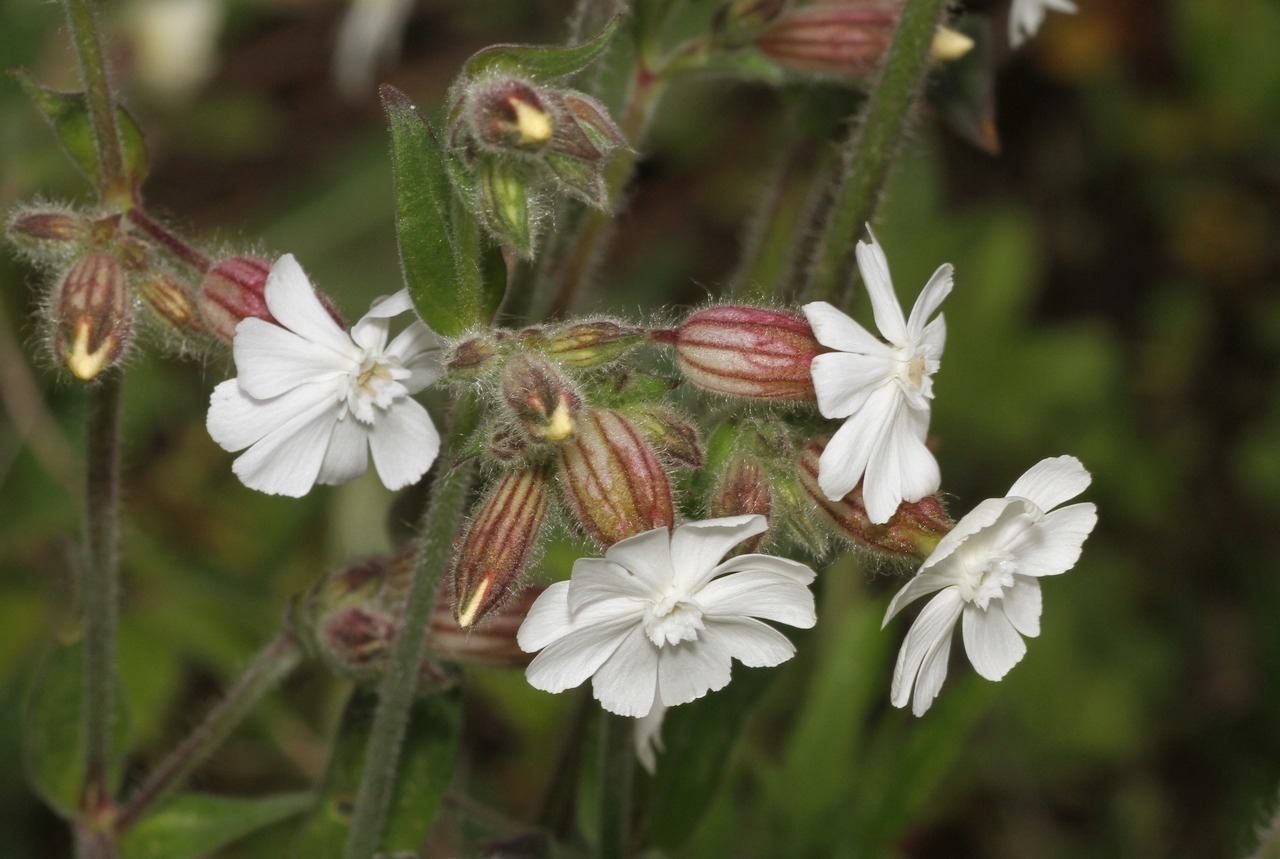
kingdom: Plantae
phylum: Tracheophyta
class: Magnoliopsida
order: Caryophyllales
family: Caryophyllaceae
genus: Silene
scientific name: Silene latifolia
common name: White campion
